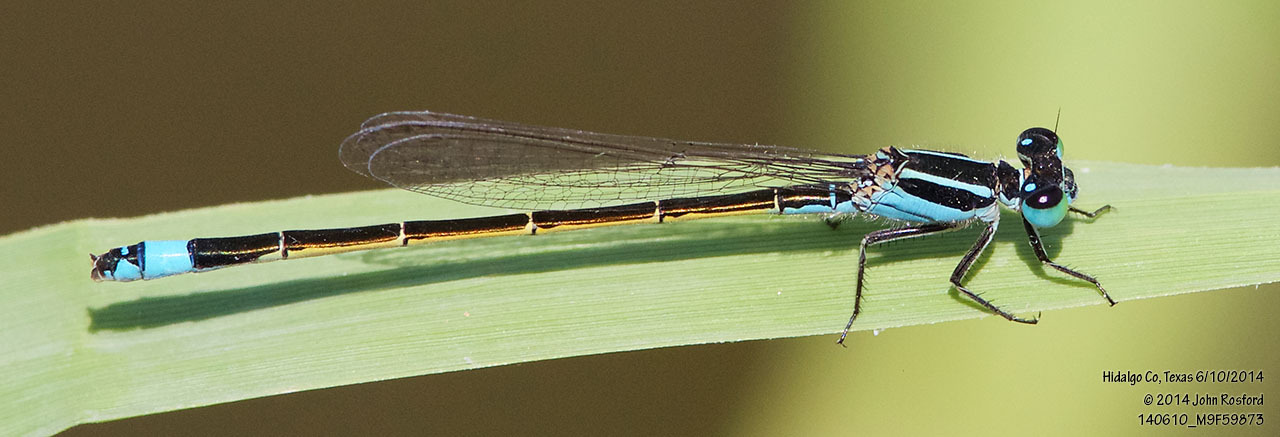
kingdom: Animalia
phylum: Arthropoda
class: Insecta
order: Odonata
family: Coenagrionidae
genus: Ischnura
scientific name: Ischnura ramburii
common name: Rambur's forktail
